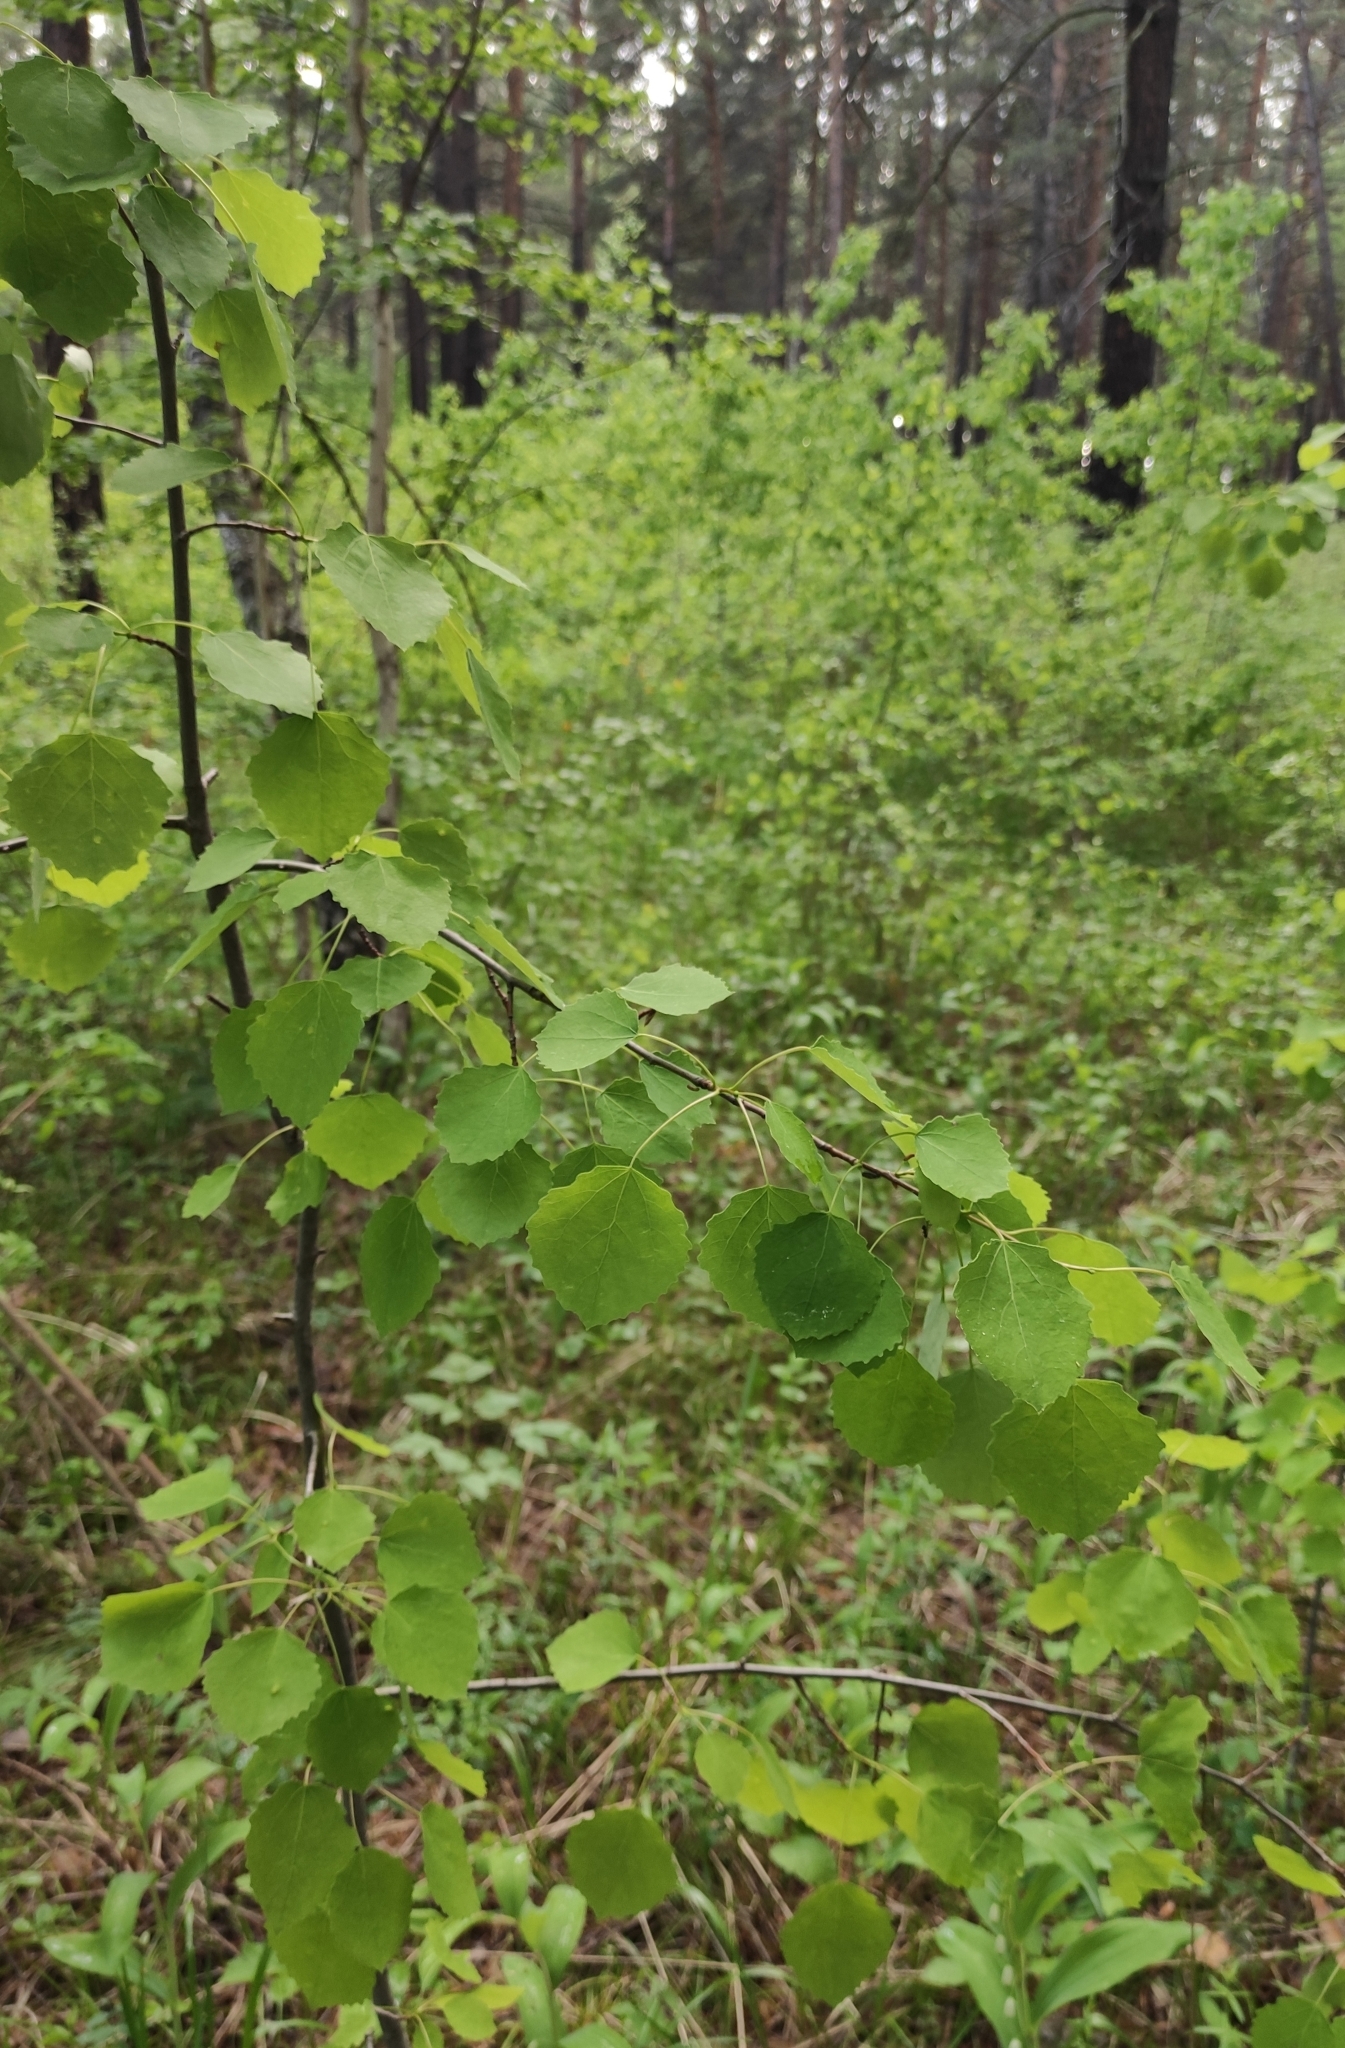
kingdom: Plantae
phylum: Tracheophyta
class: Magnoliopsida
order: Malpighiales
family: Salicaceae
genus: Populus
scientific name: Populus tremula
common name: European aspen
